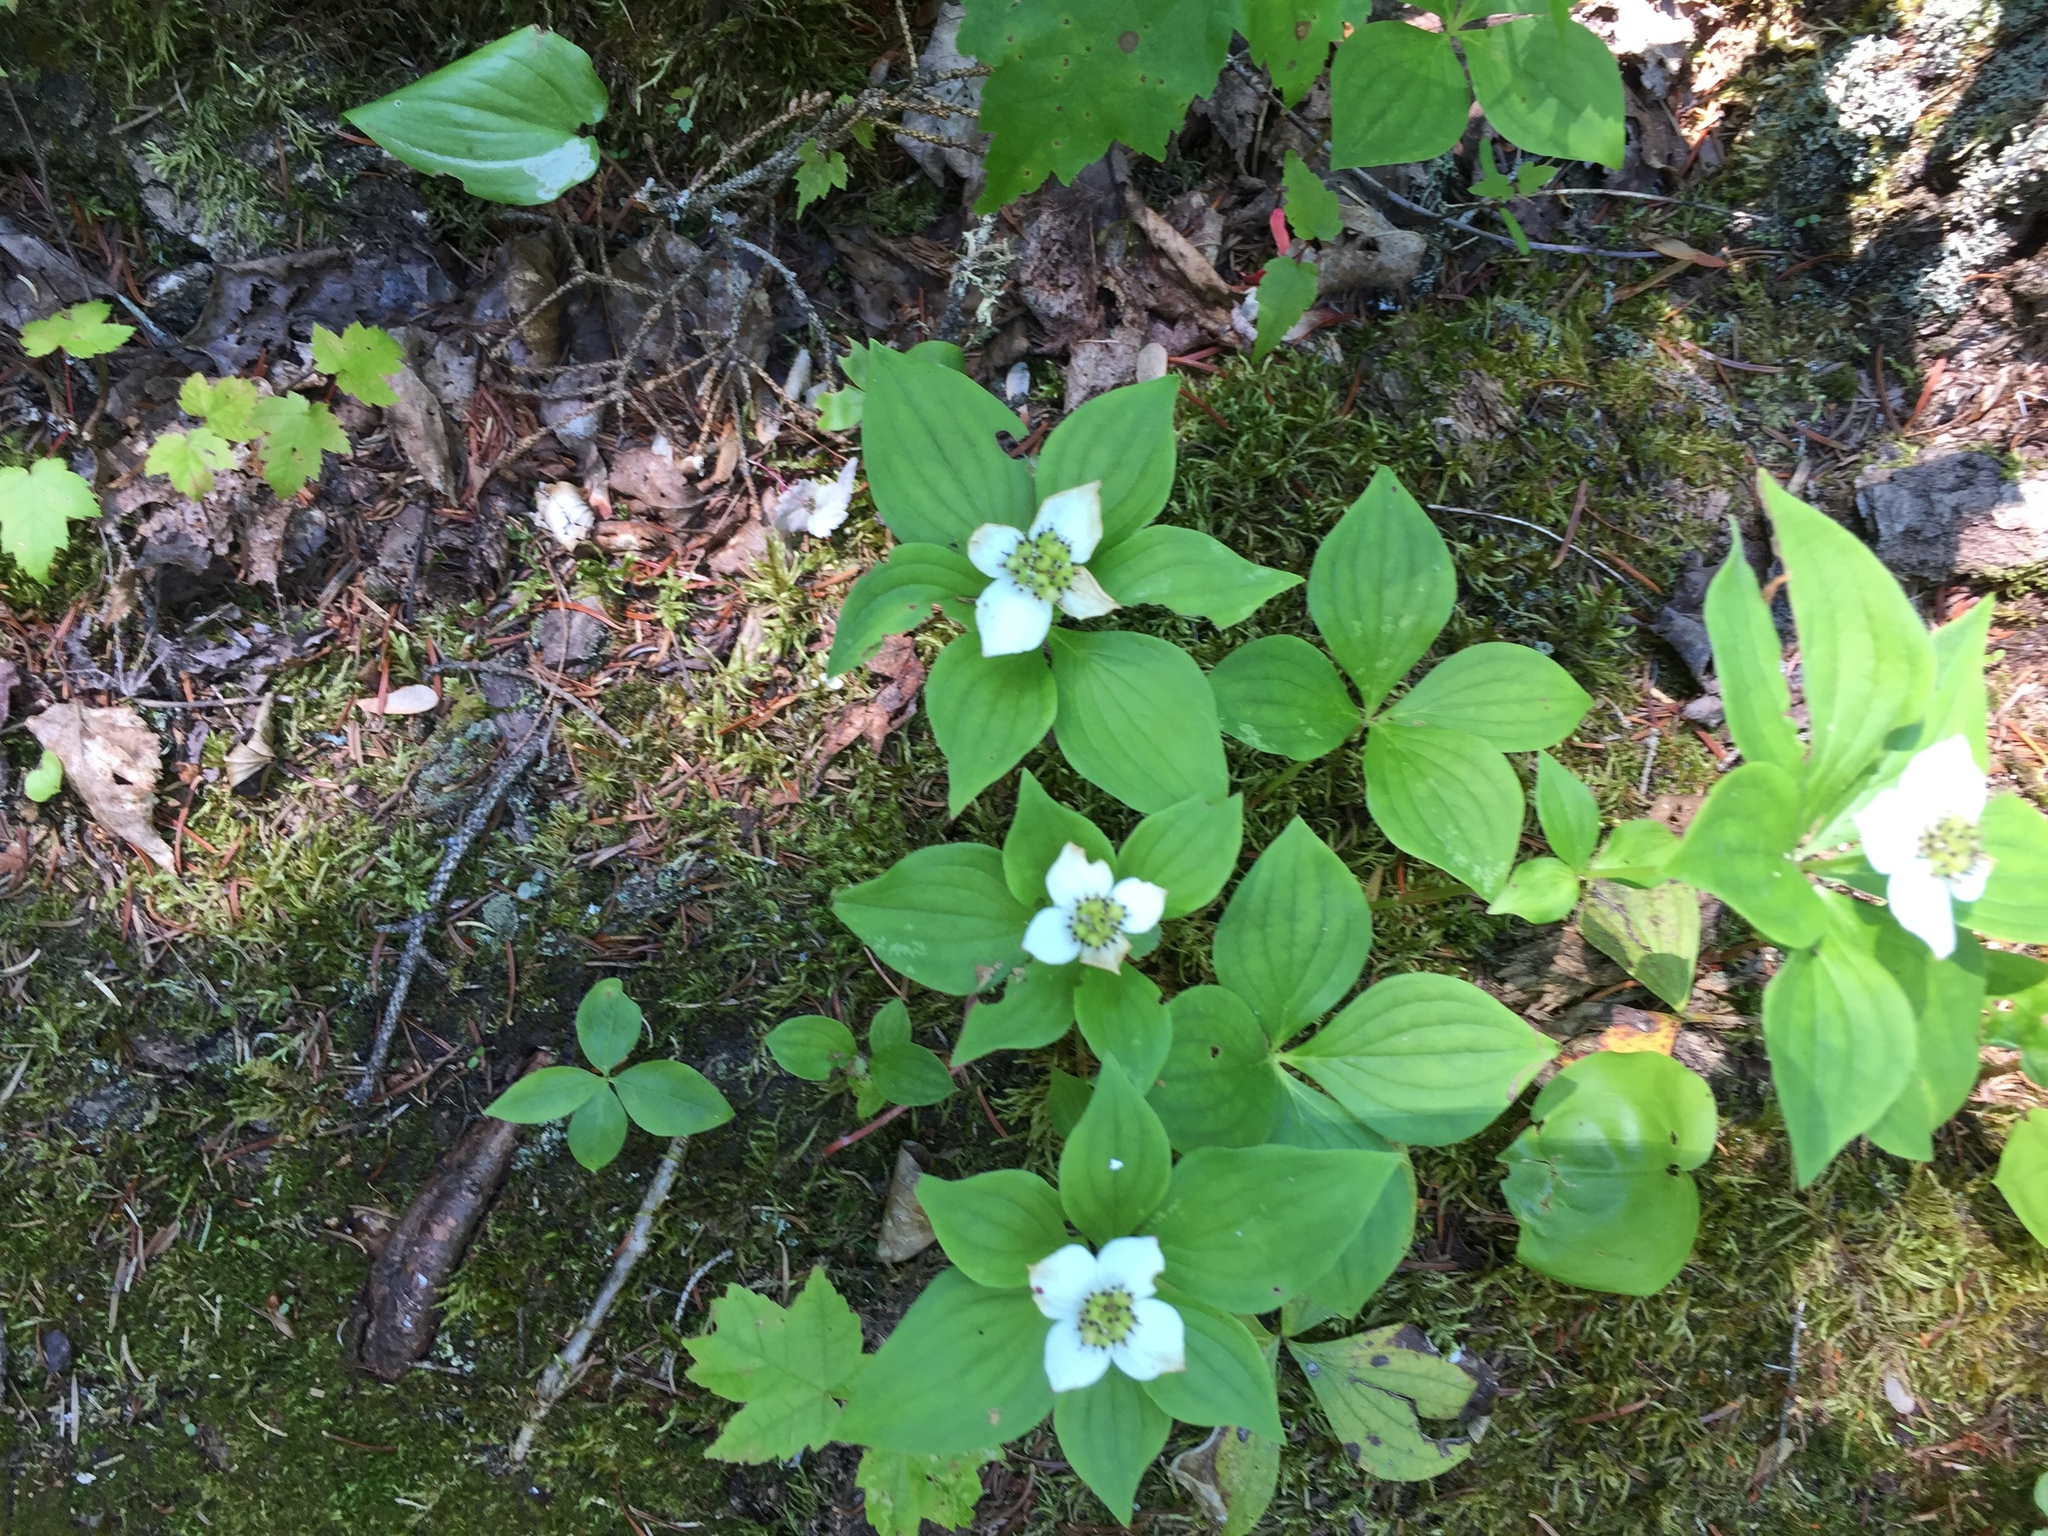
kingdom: Plantae
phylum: Tracheophyta
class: Magnoliopsida
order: Cornales
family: Cornaceae
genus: Cornus
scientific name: Cornus canadensis
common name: Creeping dogwood
